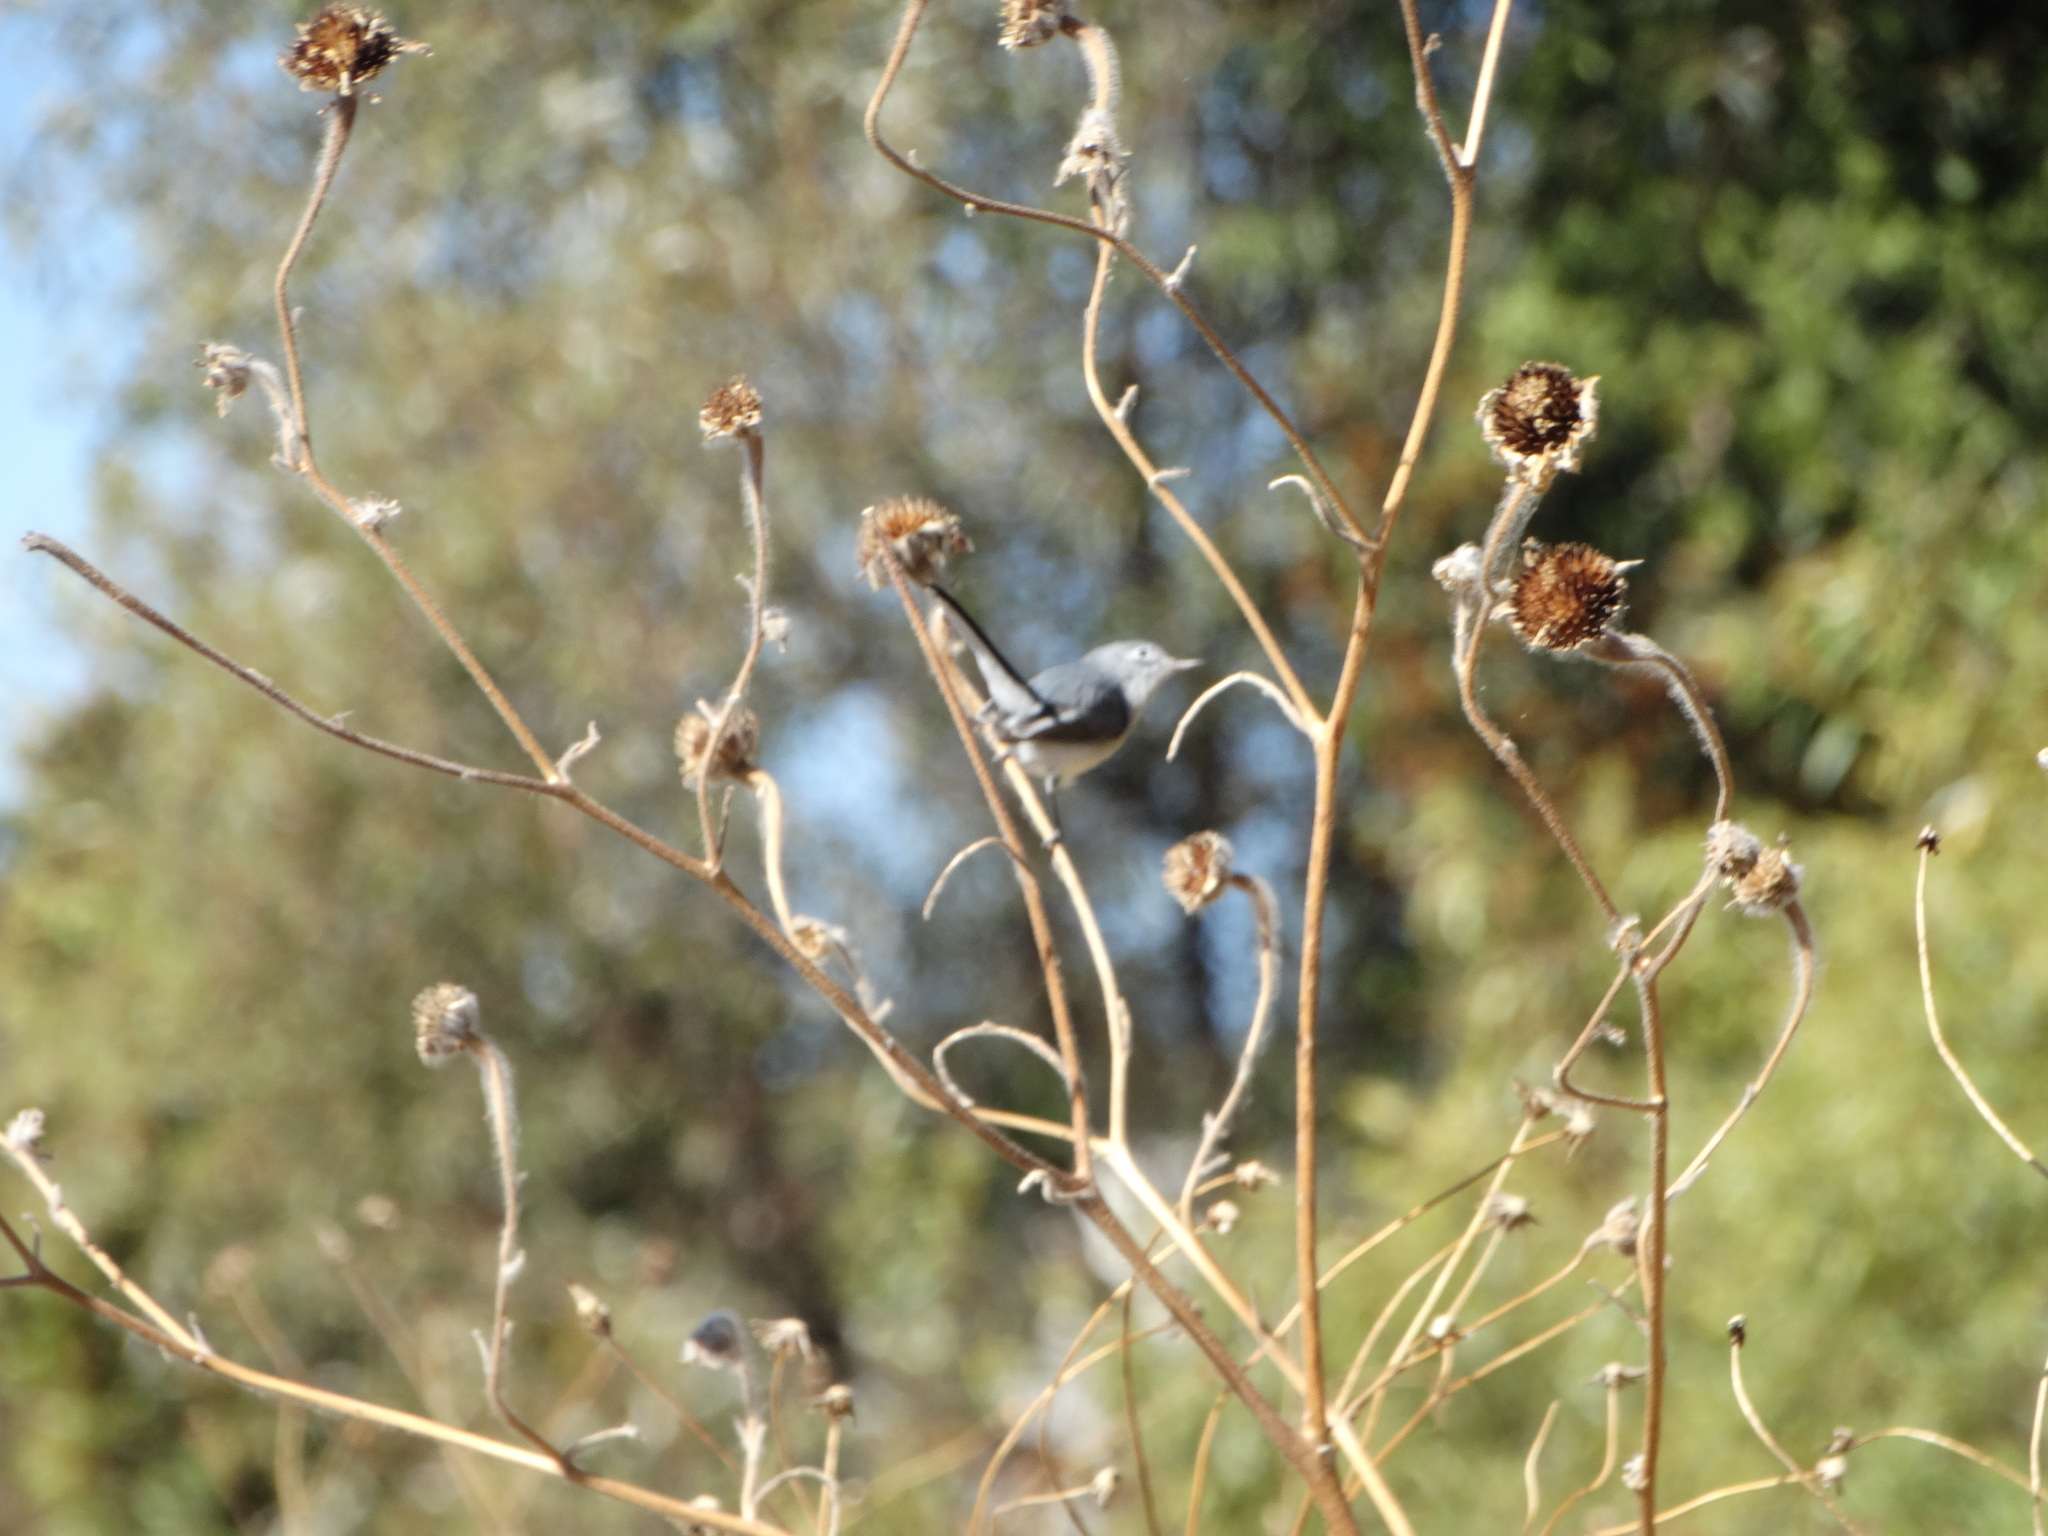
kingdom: Animalia
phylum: Chordata
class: Aves
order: Passeriformes
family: Polioptilidae
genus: Polioptila
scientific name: Polioptila caerulea
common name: Blue-gray gnatcatcher
